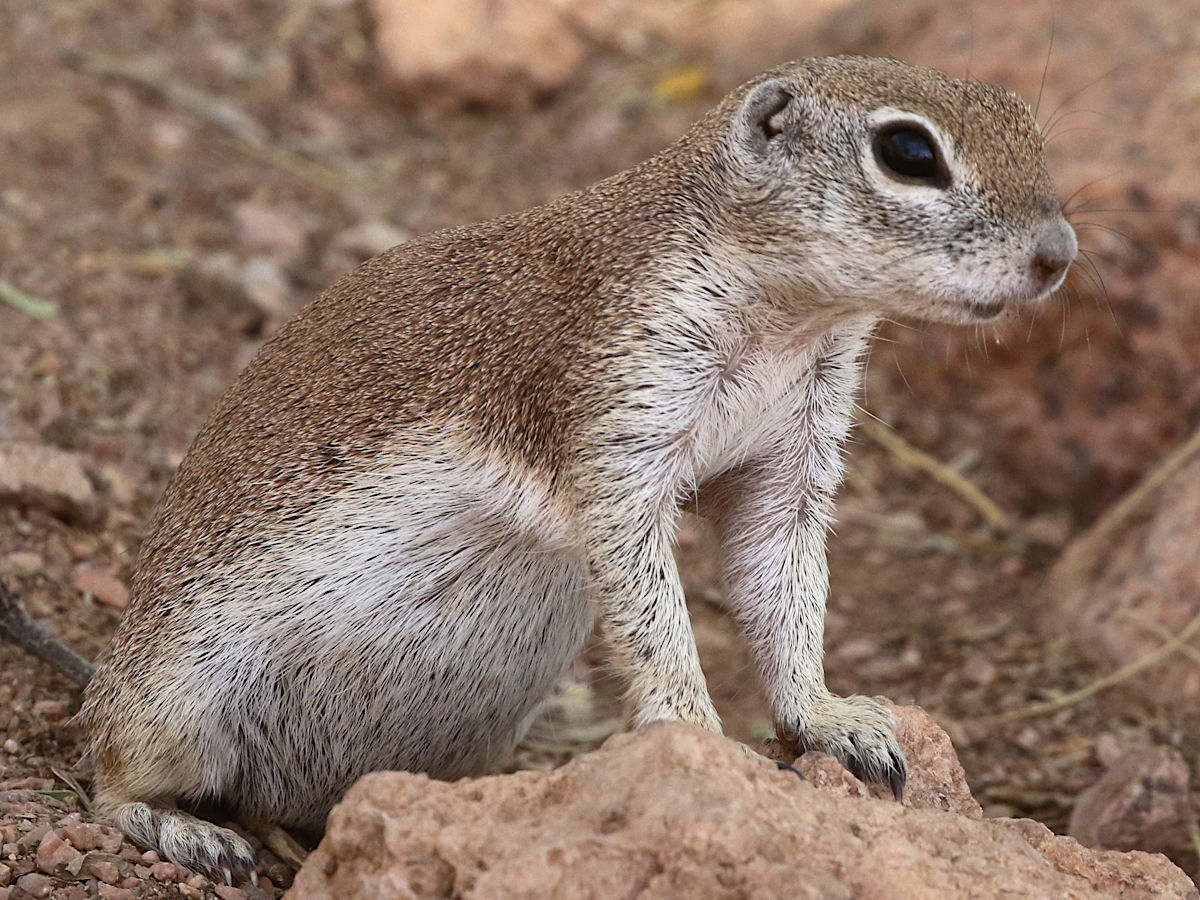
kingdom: Animalia
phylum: Chordata
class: Mammalia
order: Rodentia
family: Sciuridae
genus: Xerospermophilus
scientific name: Xerospermophilus tereticaudus
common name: Round-tailed ground squirrel
